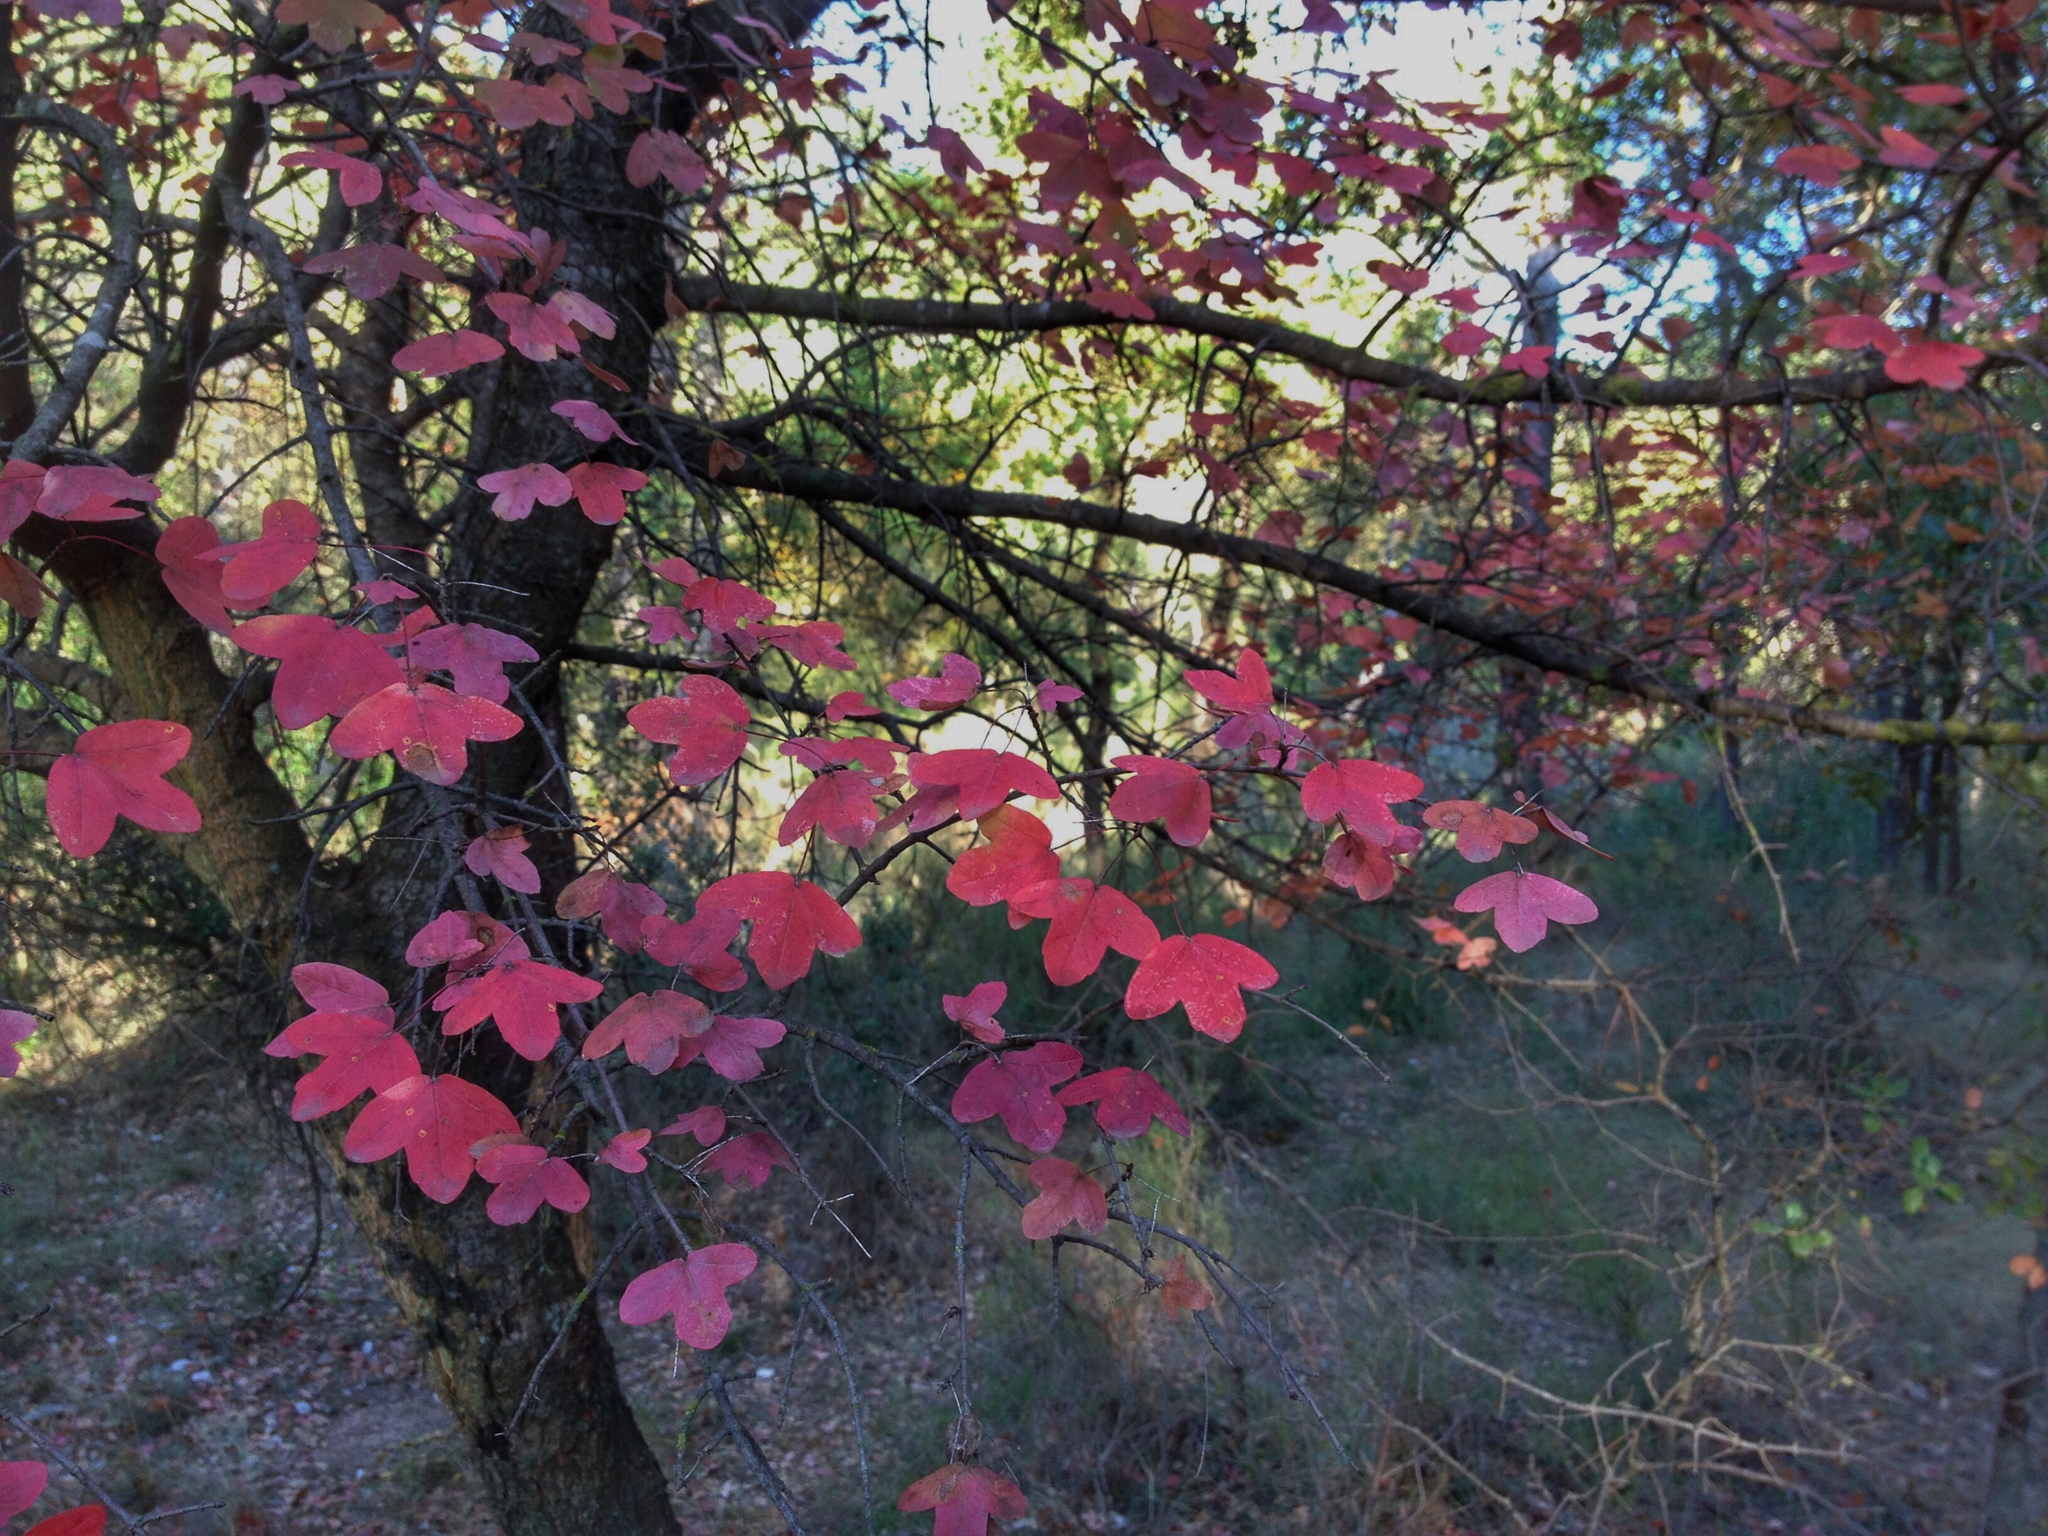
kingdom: Plantae
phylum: Tracheophyta
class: Magnoliopsida
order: Sapindales
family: Sapindaceae
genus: Acer
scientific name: Acer monspessulanum
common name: Montpellier maple
